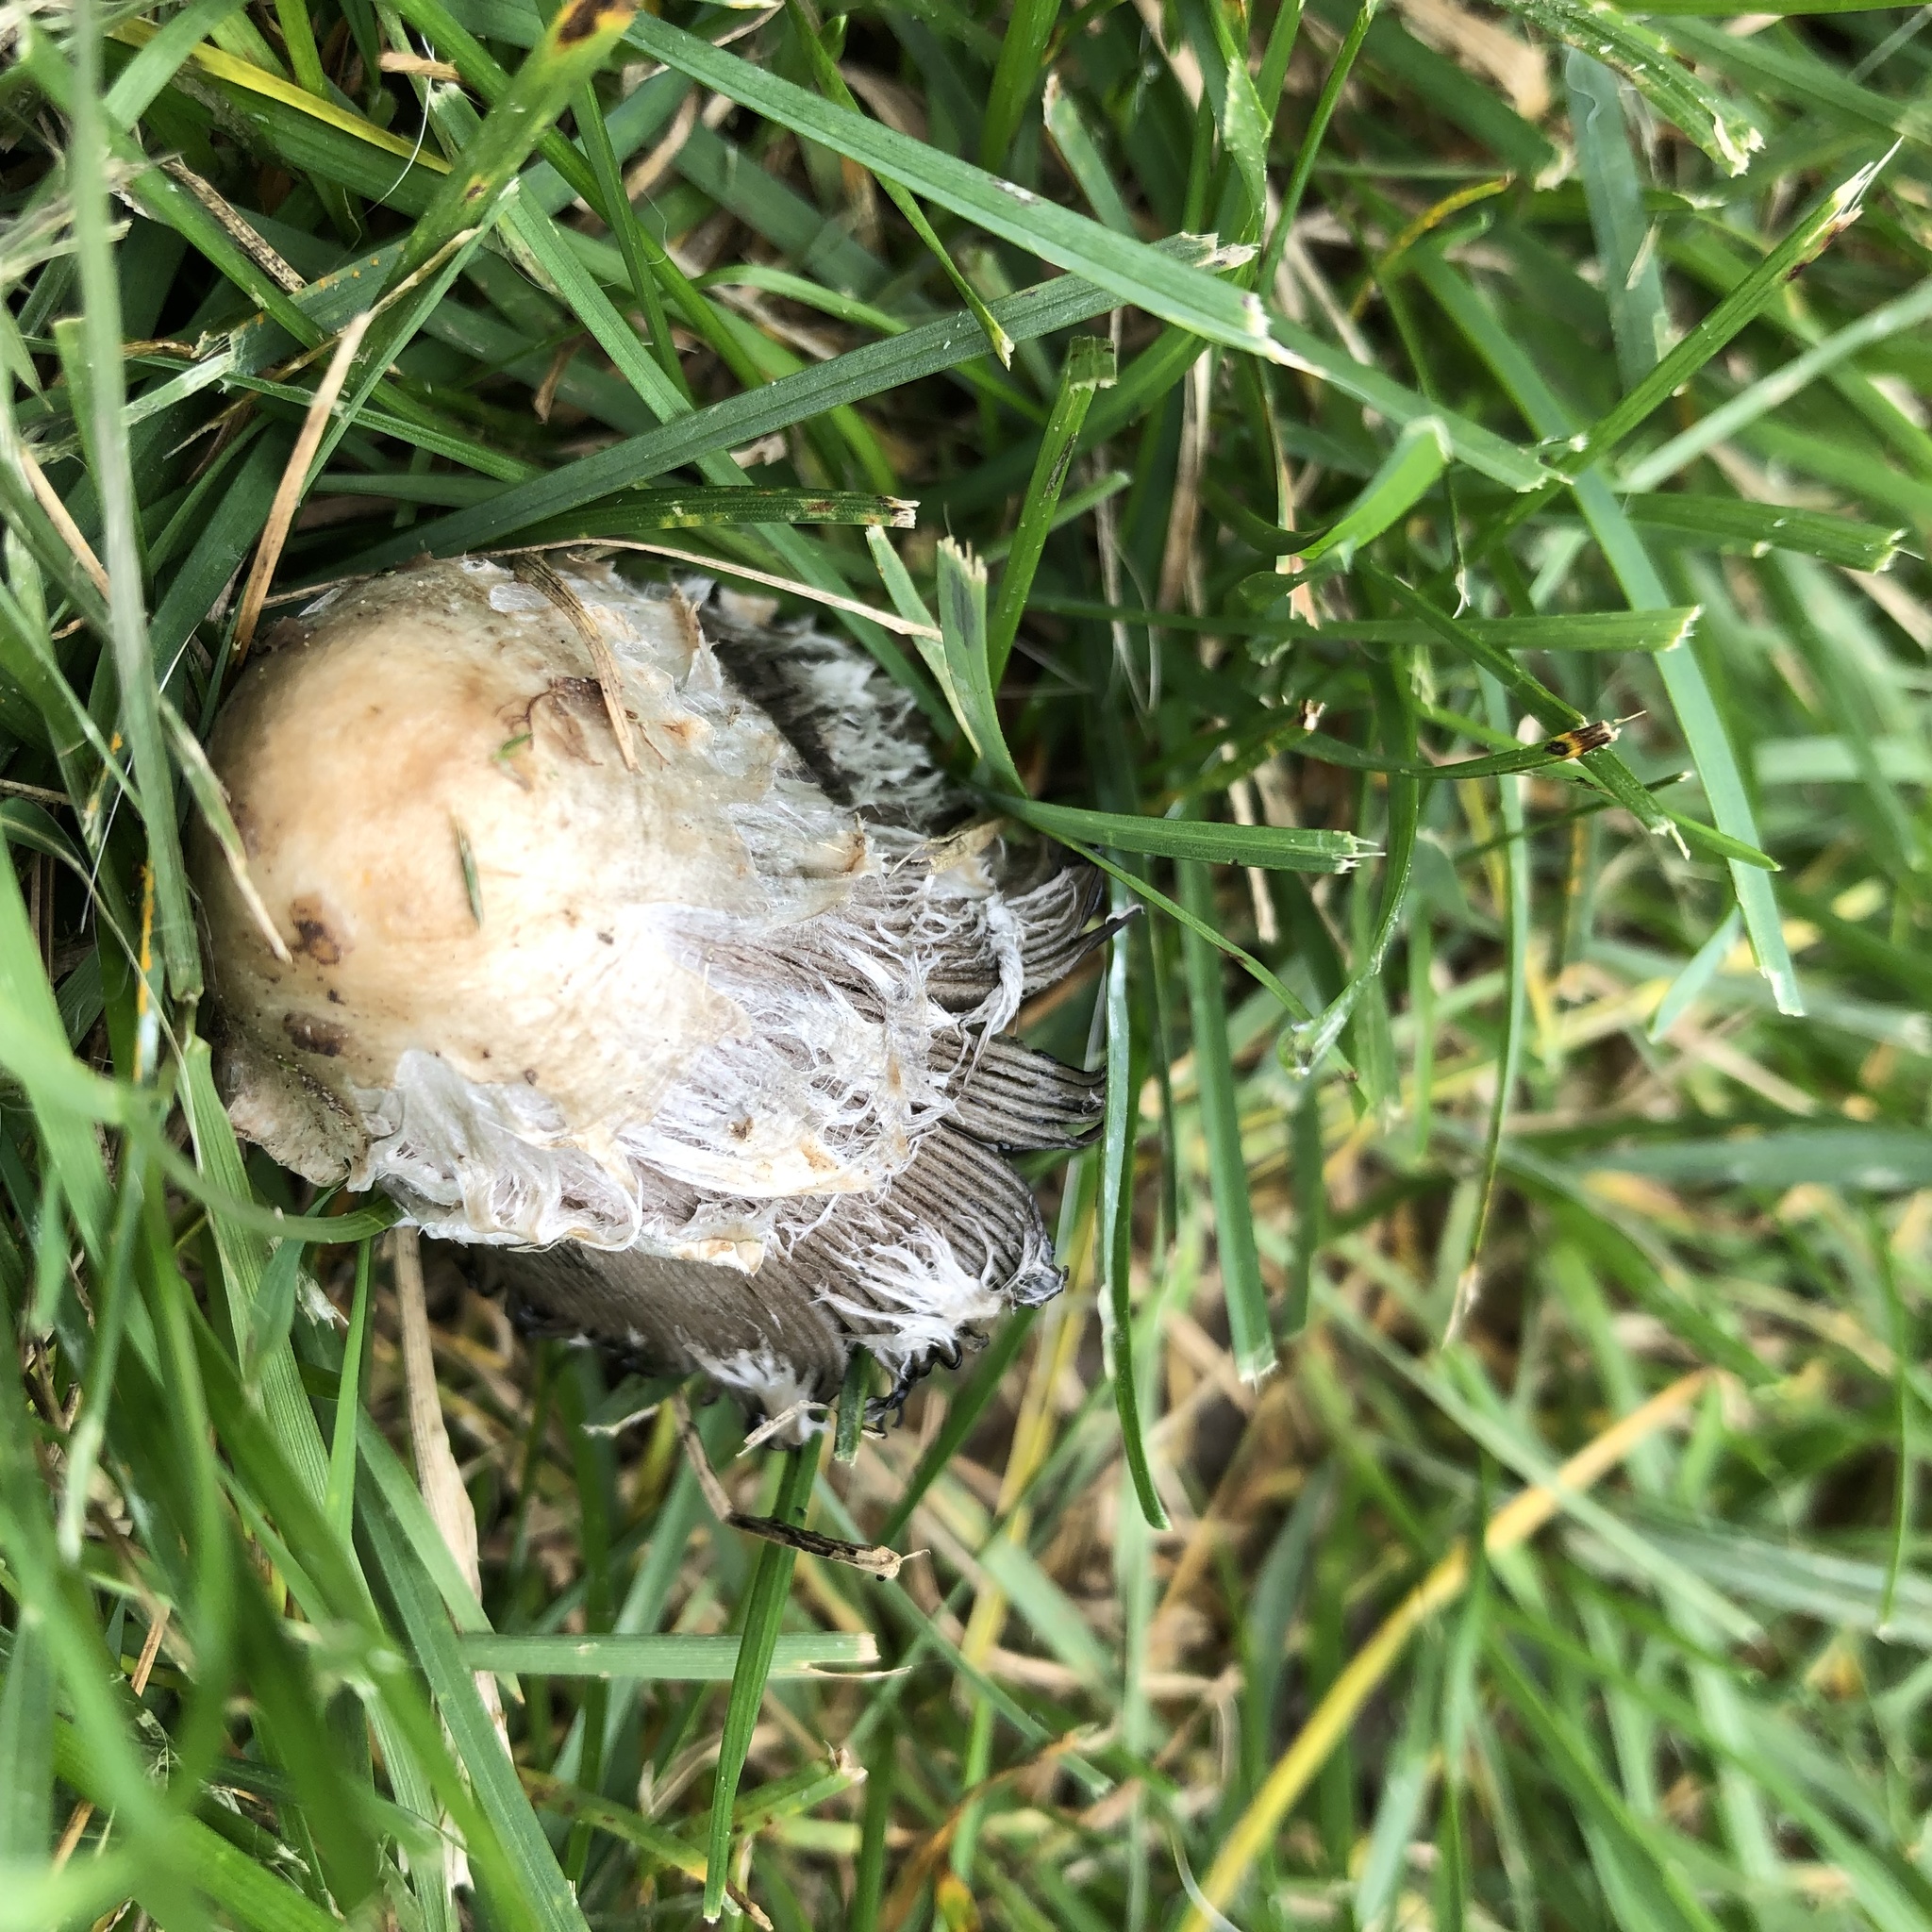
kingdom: Fungi
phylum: Basidiomycota
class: Agaricomycetes
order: Agaricales
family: Agaricaceae
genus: Coprinus
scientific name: Coprinus comatus
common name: Lawyer's wig
